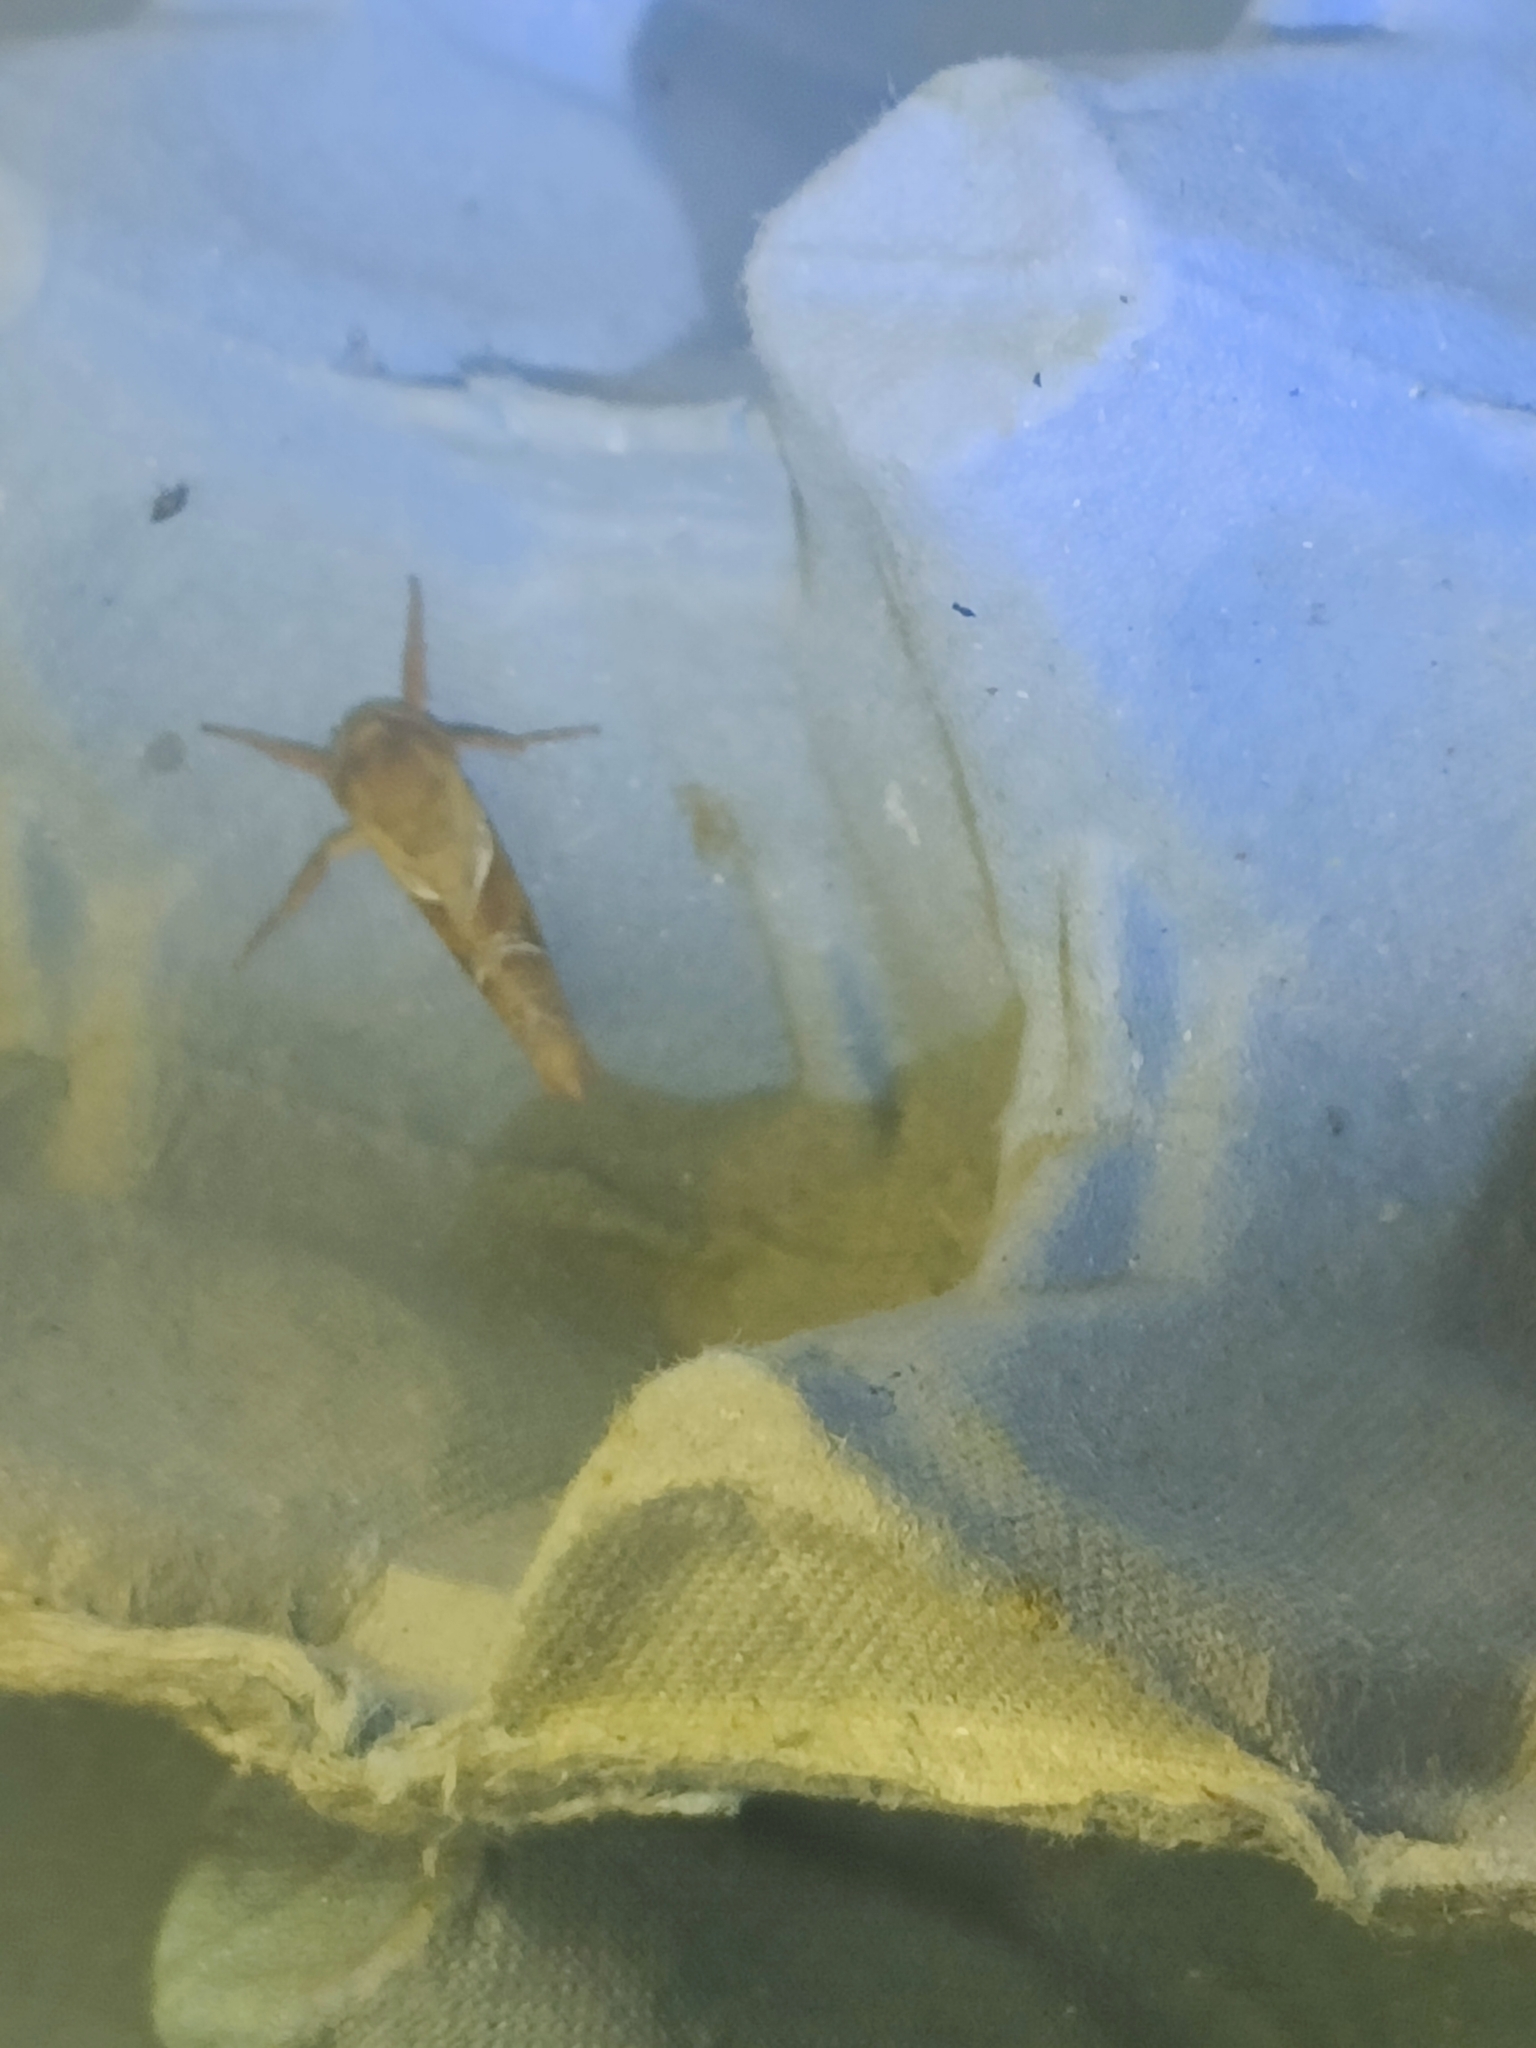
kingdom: Animalia
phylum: Arthropoda
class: Insecta
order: Lepidoptera
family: Hepialidae
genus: Triodia
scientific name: Triodia sylvina
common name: Orange swift
